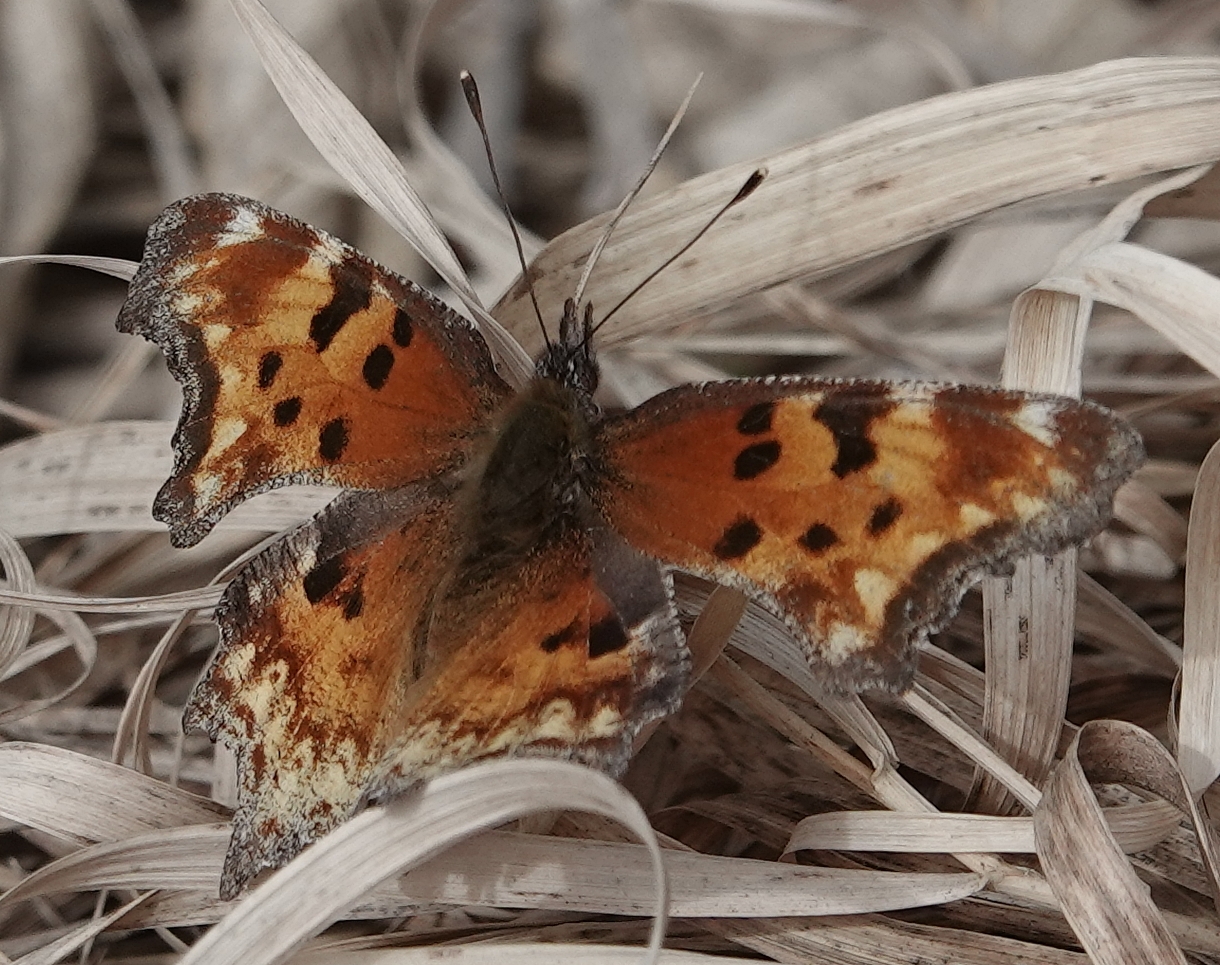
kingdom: Animalia
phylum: Arthropoda
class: Insecta
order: Lepidoptera
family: Nymphalidae
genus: Polygonia
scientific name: Polygonia gracilis
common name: Hoary comma
